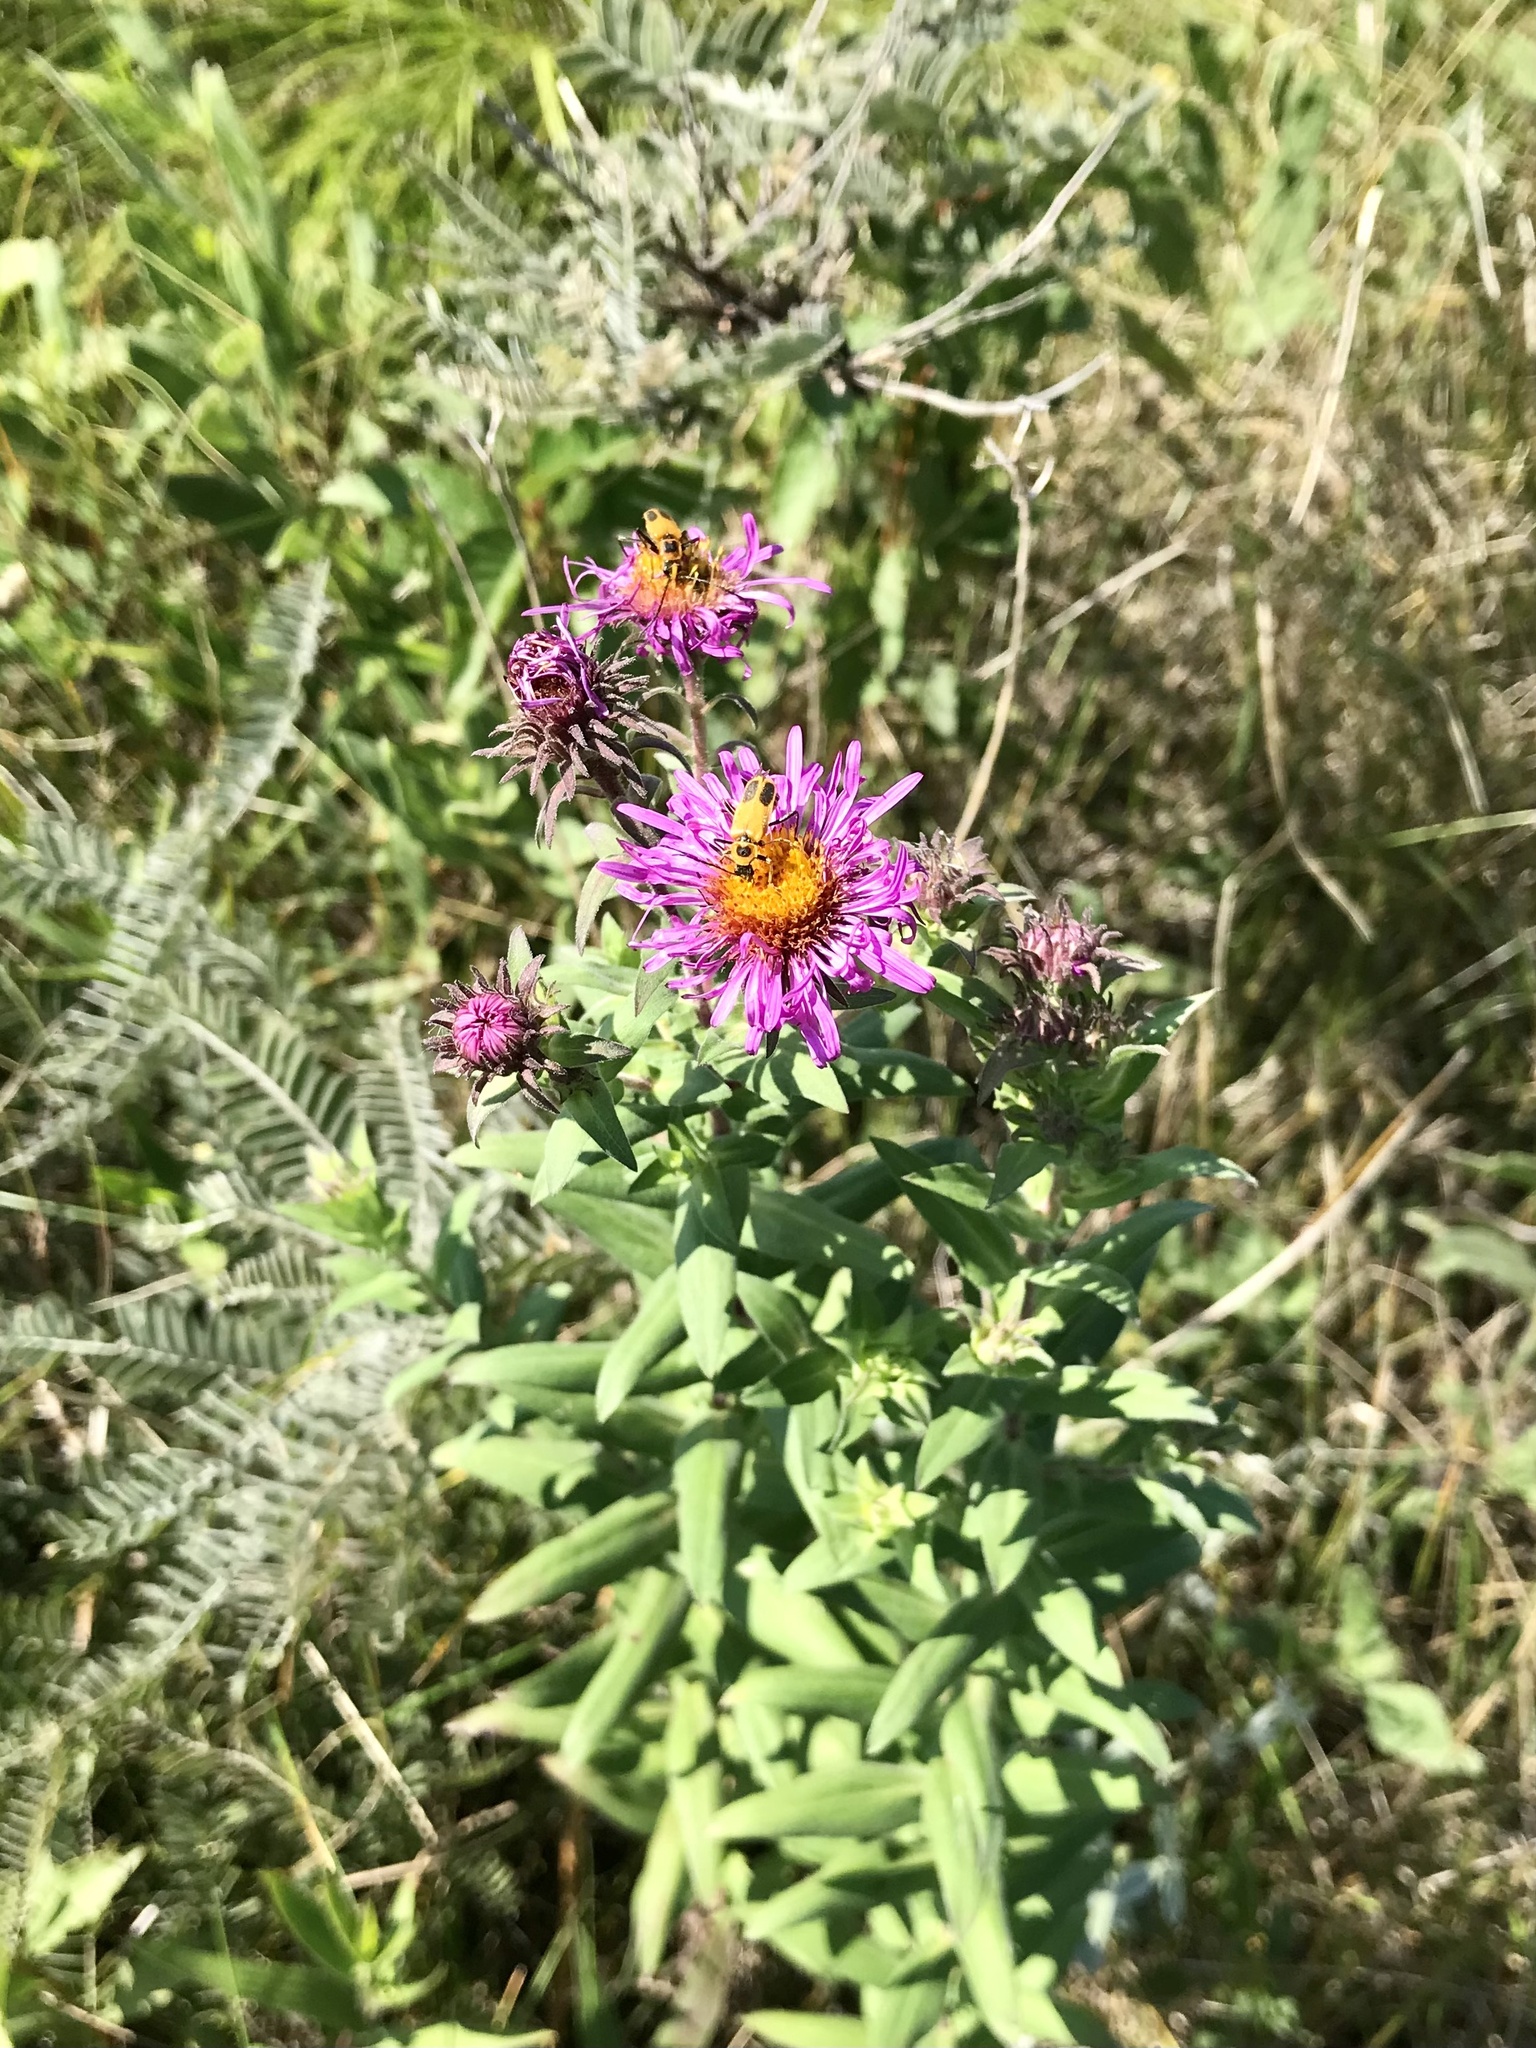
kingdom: Plantae
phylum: Tracheophyta
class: Magnoliopsida
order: Asterales
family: Asteraceae
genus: Symphyotrichum
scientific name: Symphyotrichum novae-angliae
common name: Michaelmas daisy
